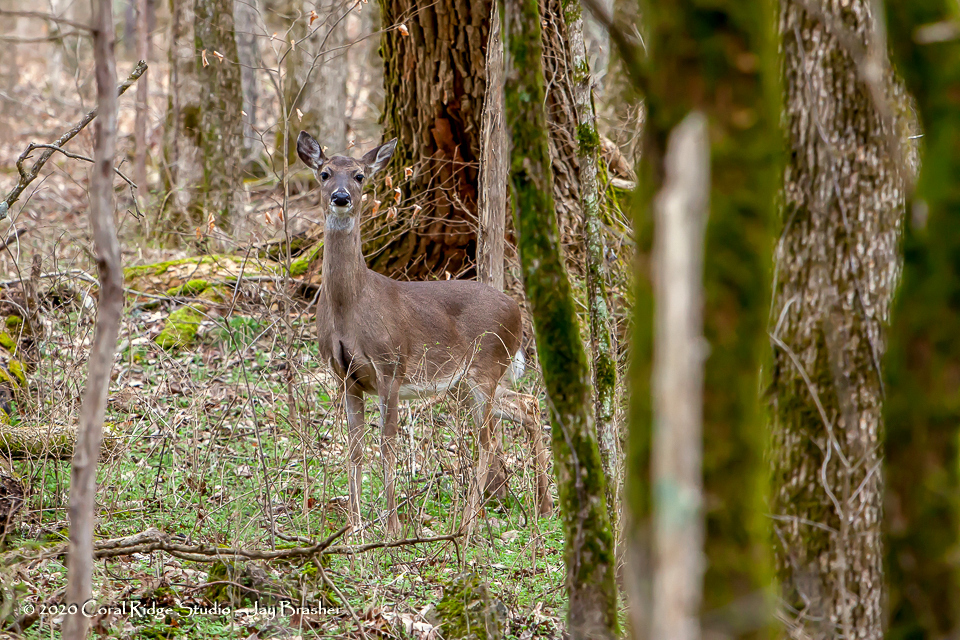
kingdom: Animalia
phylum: Chordata
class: Mammalia
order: Artiodactyla
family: Cervidae
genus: Odocoileus
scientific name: Odocoileus virginianus
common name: White-tailed deer
